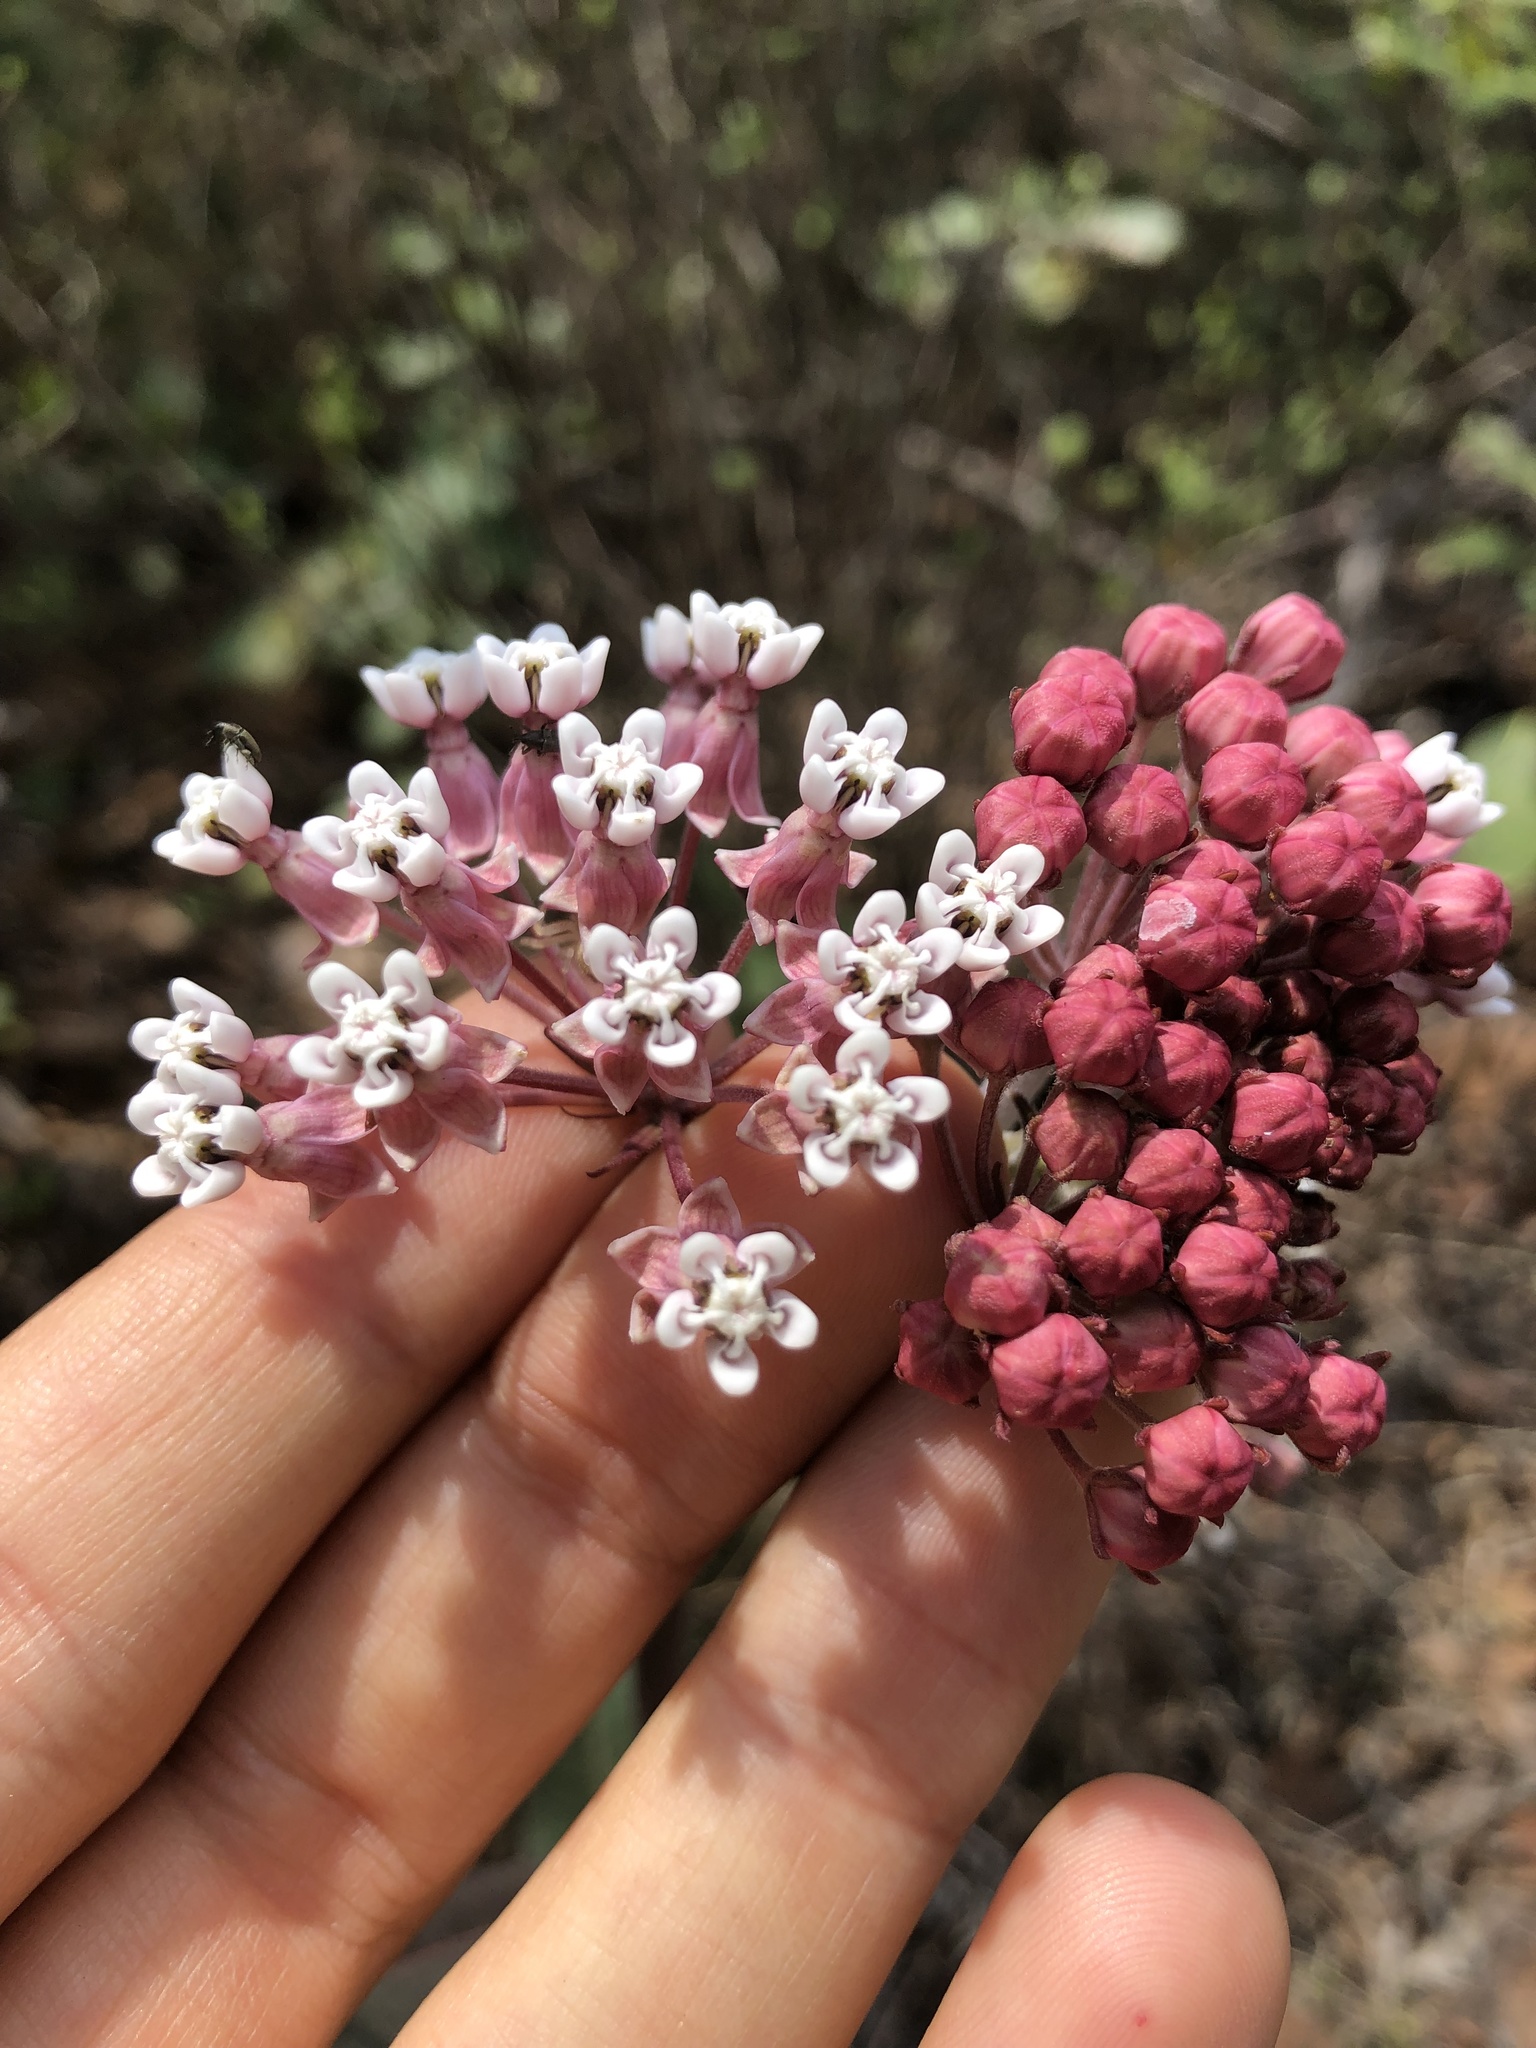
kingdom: Plantae
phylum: Tracheophyta
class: Magnoliopsida
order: Gentianales
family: Apocynaceae
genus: Asclepias
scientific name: Asclepias pellucida
